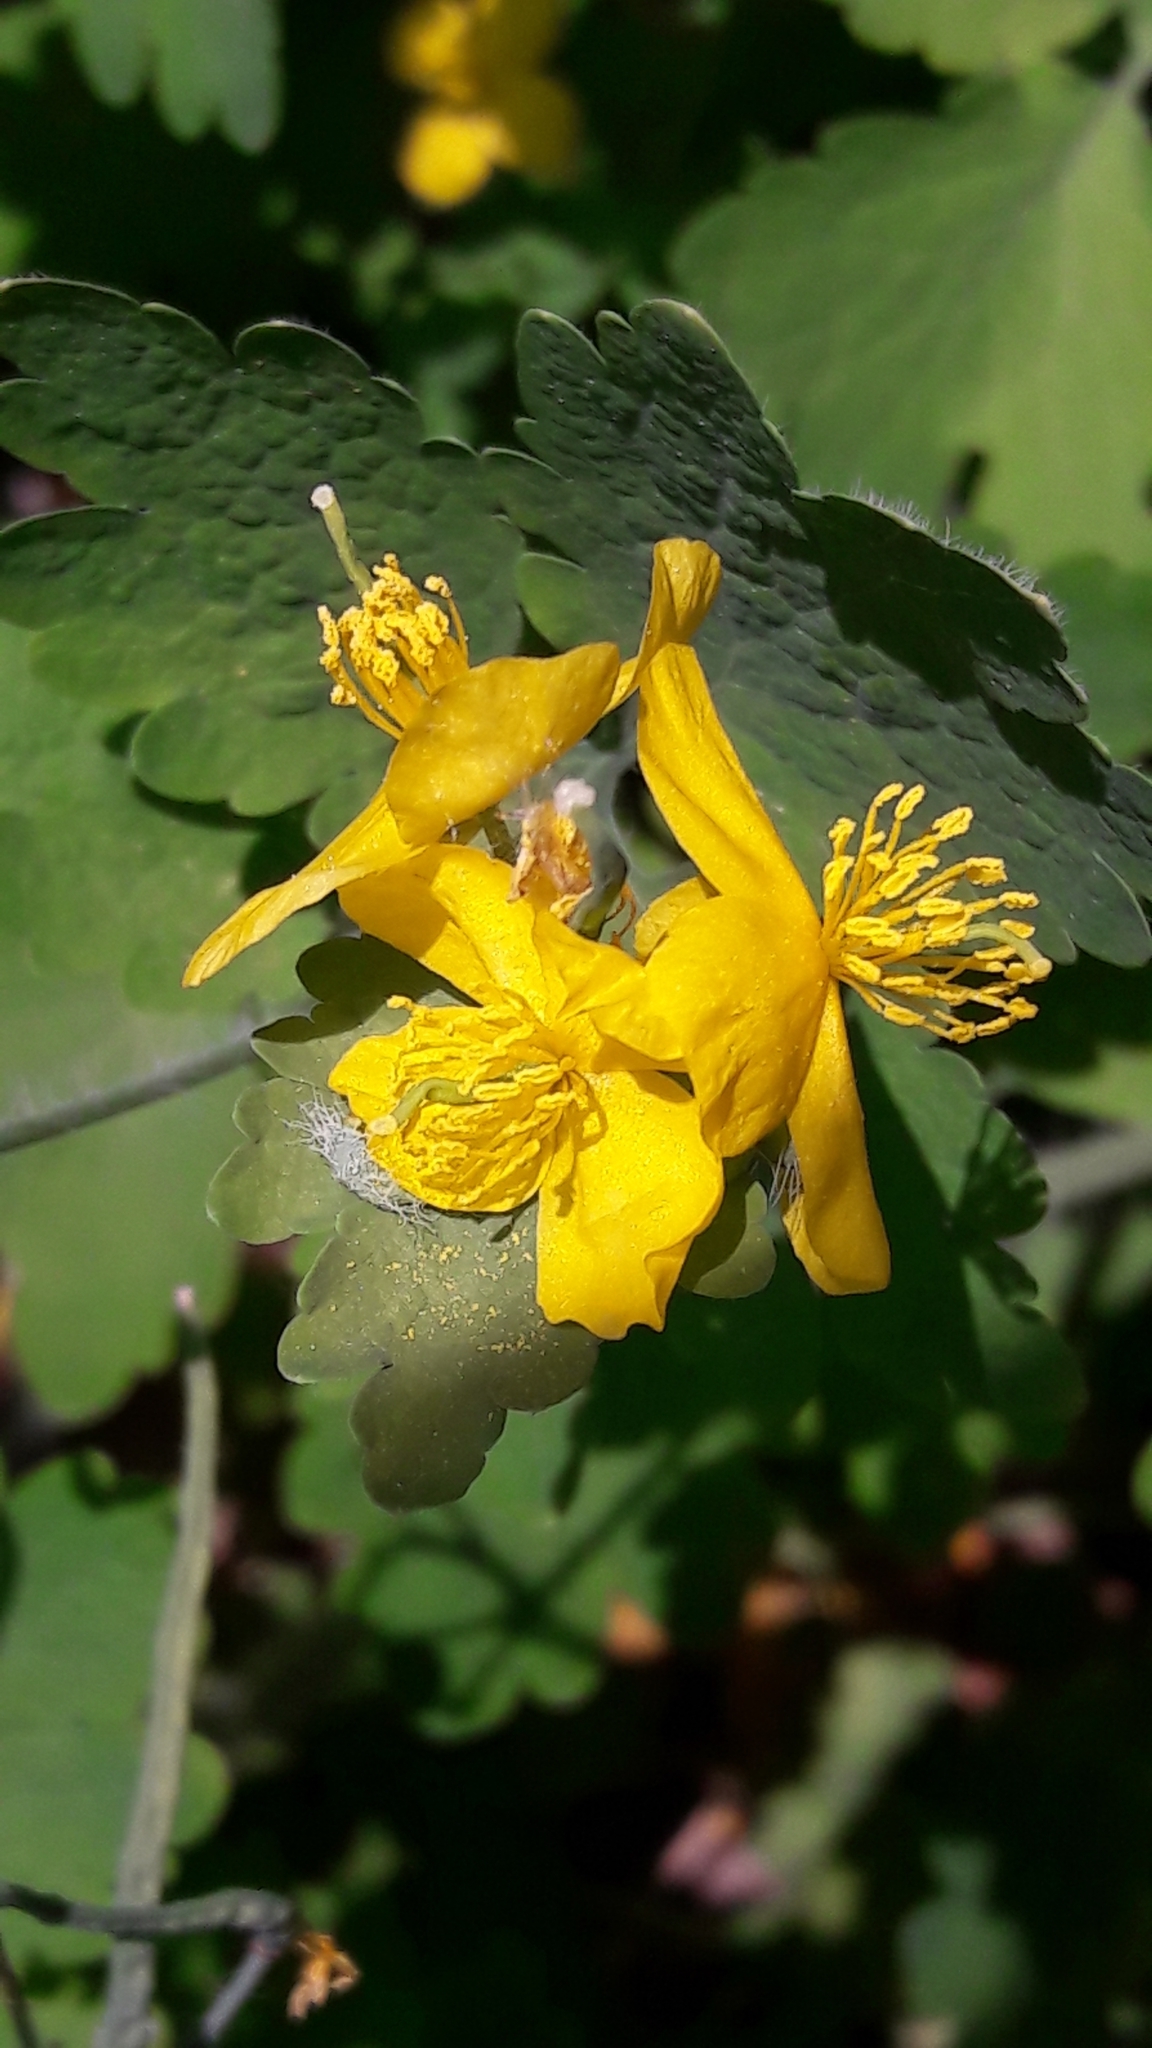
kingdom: Plantae
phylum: Tracheophyta
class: Magnoliopsida
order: Ranunculales
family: Papaveraceae
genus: Chelidonium
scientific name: Chelidonium majus
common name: Greater celandine
